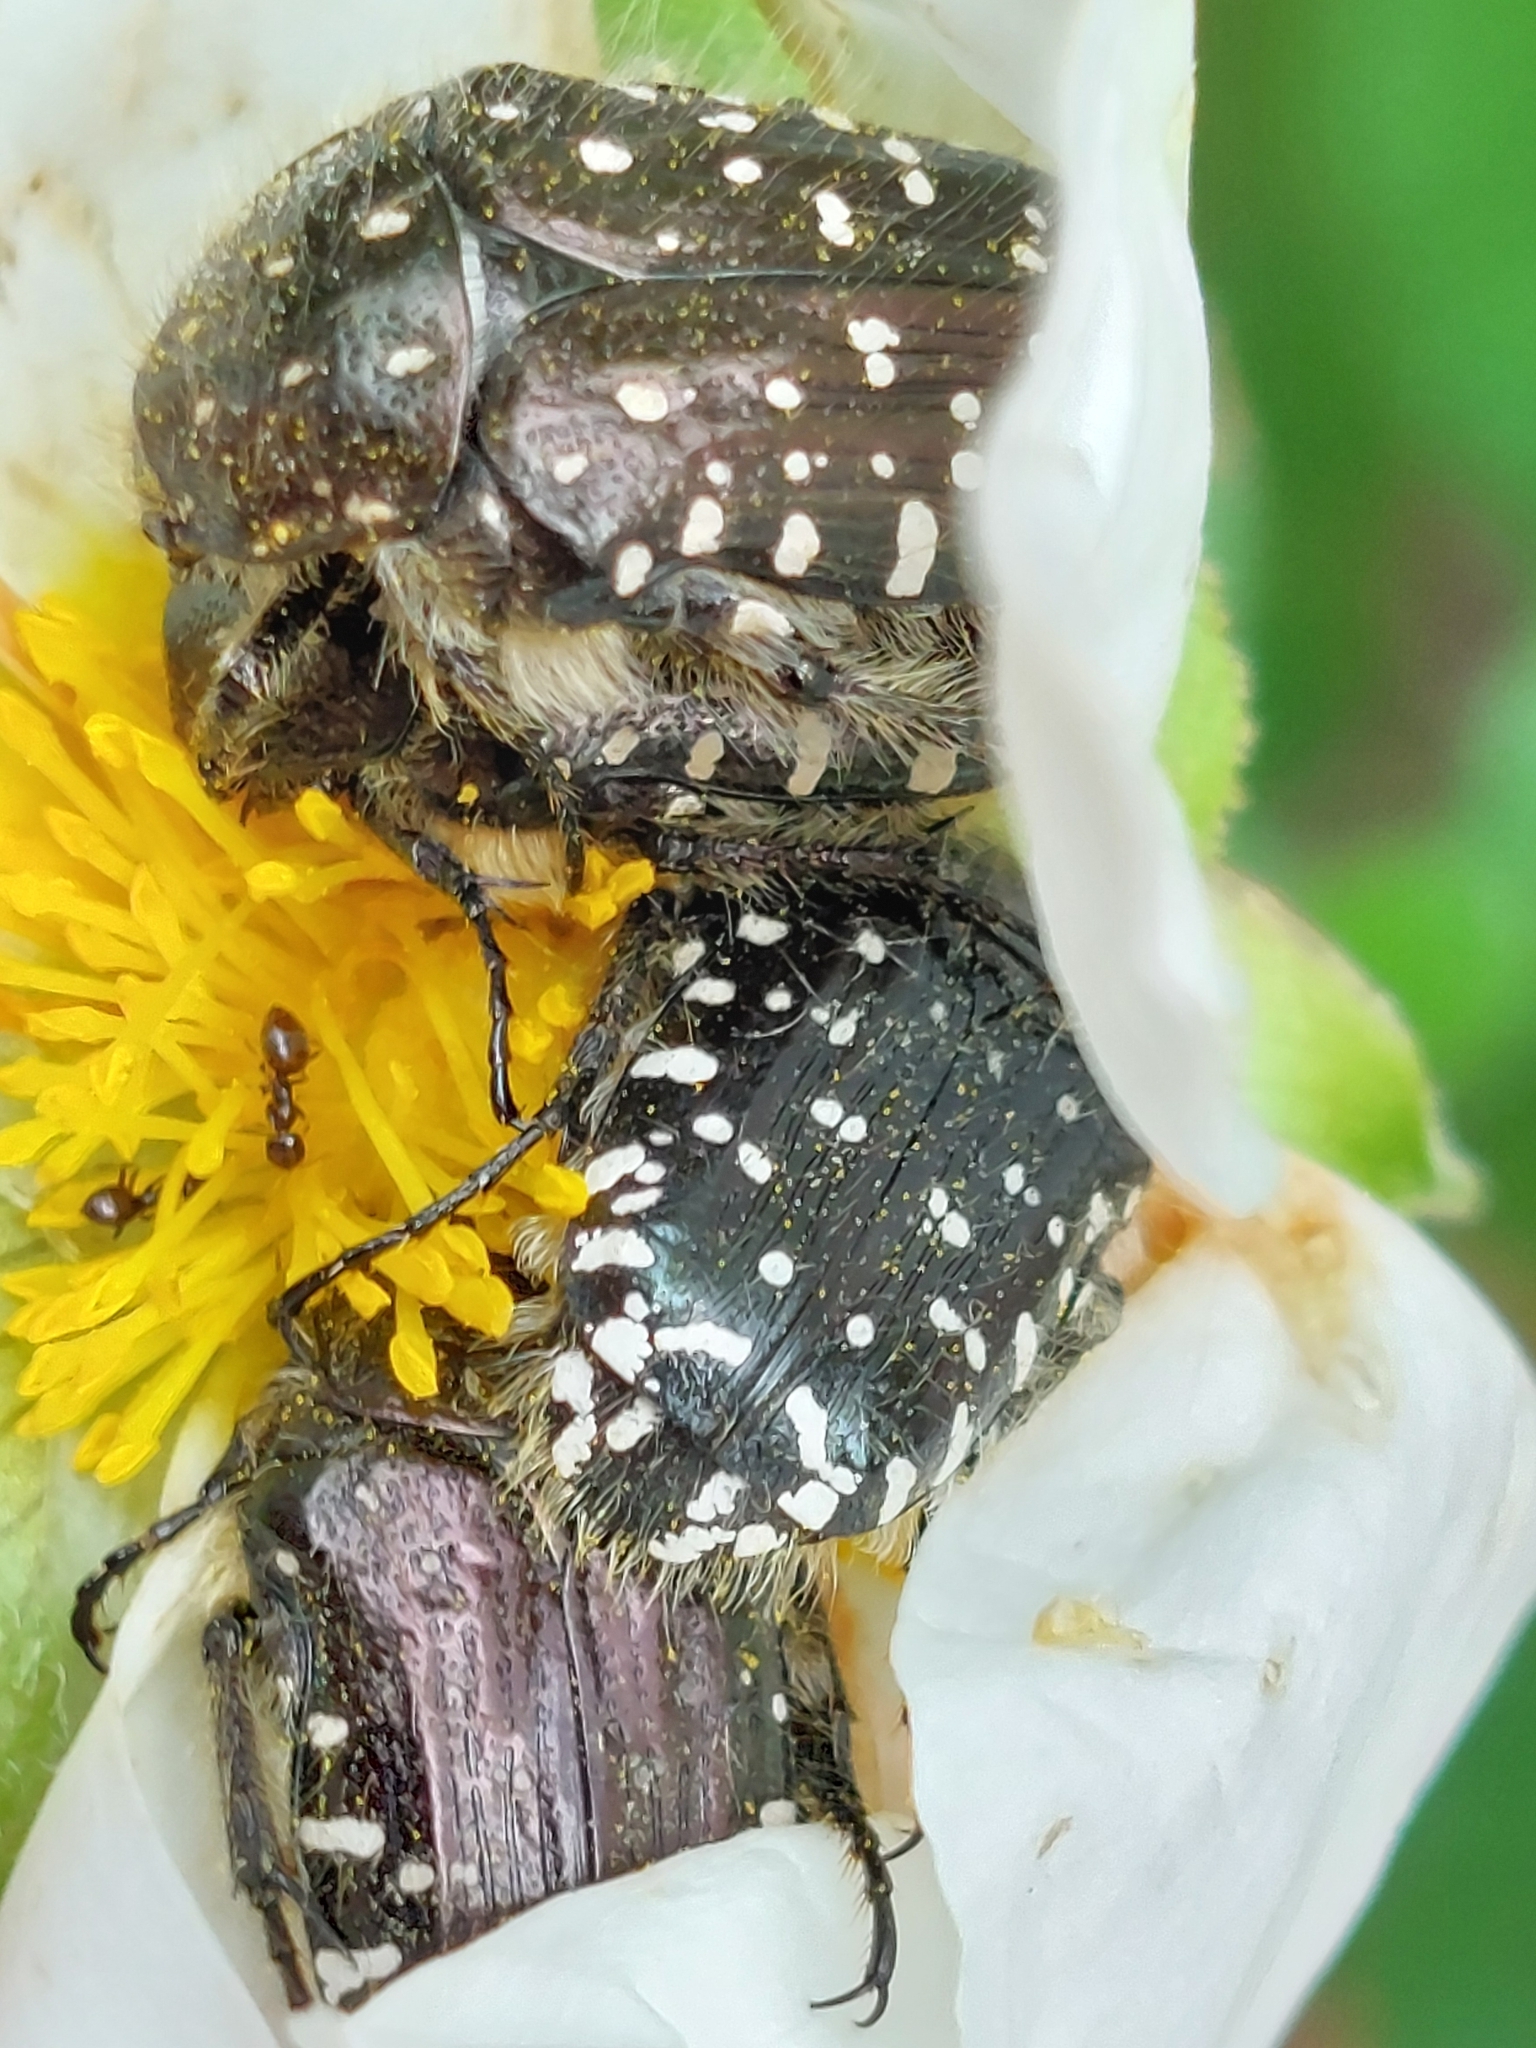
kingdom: Animalia
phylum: Arthropoda
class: Insecta
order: Coleoptera
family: Scarabaeidae
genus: Oxythyrea
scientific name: Oxythyrea funesta
